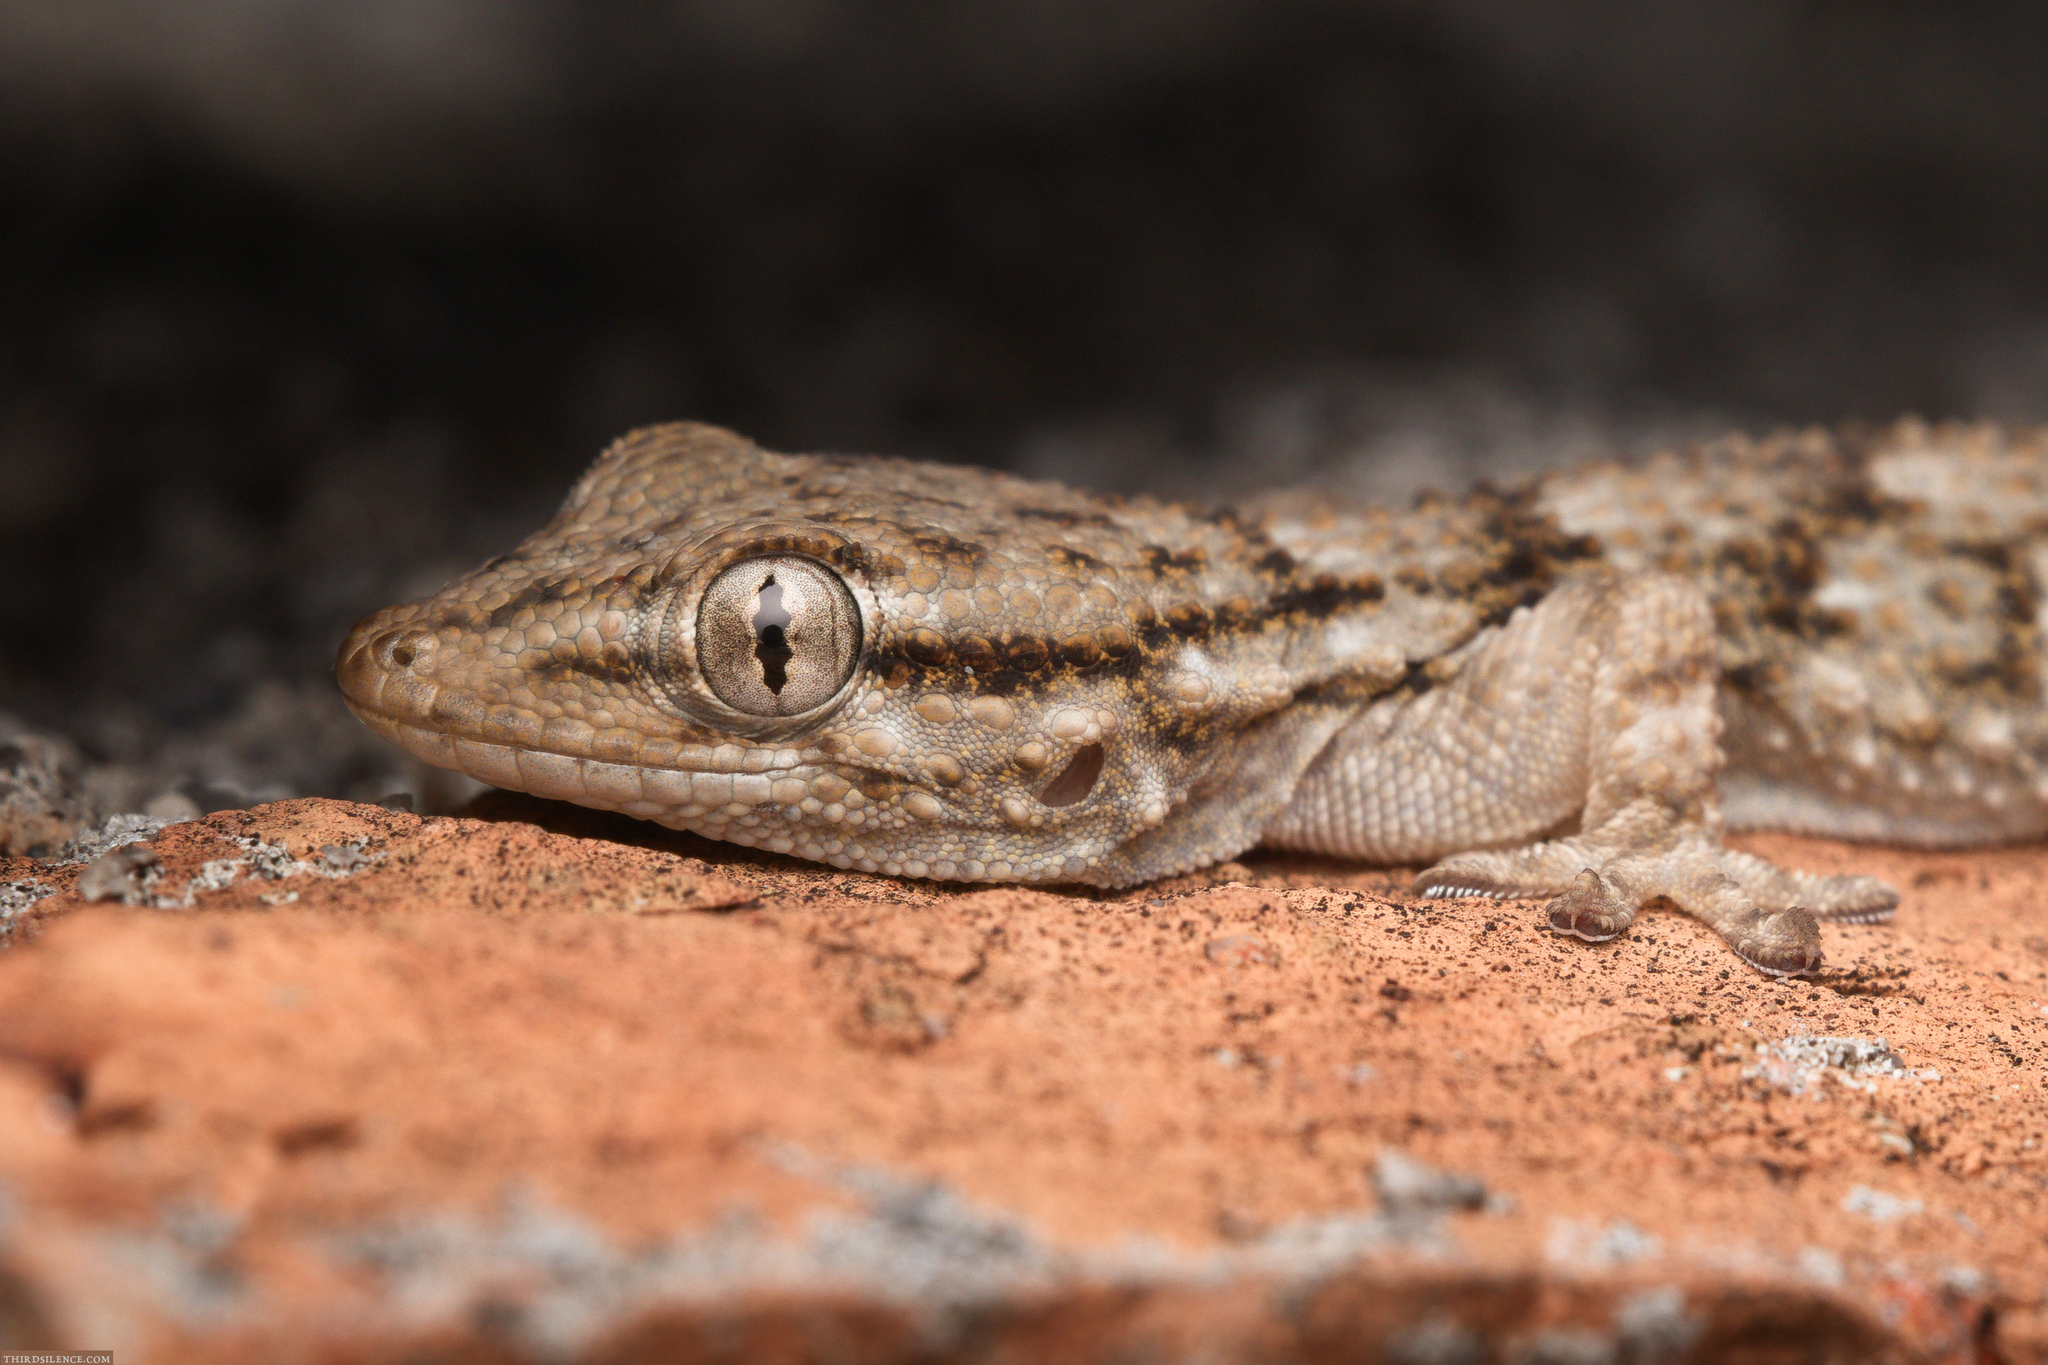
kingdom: Animalia
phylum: Chordata
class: Squamata
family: Phyllodactylidae
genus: Tarentola
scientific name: Tarentola mauritanica
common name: Moorish gecko
